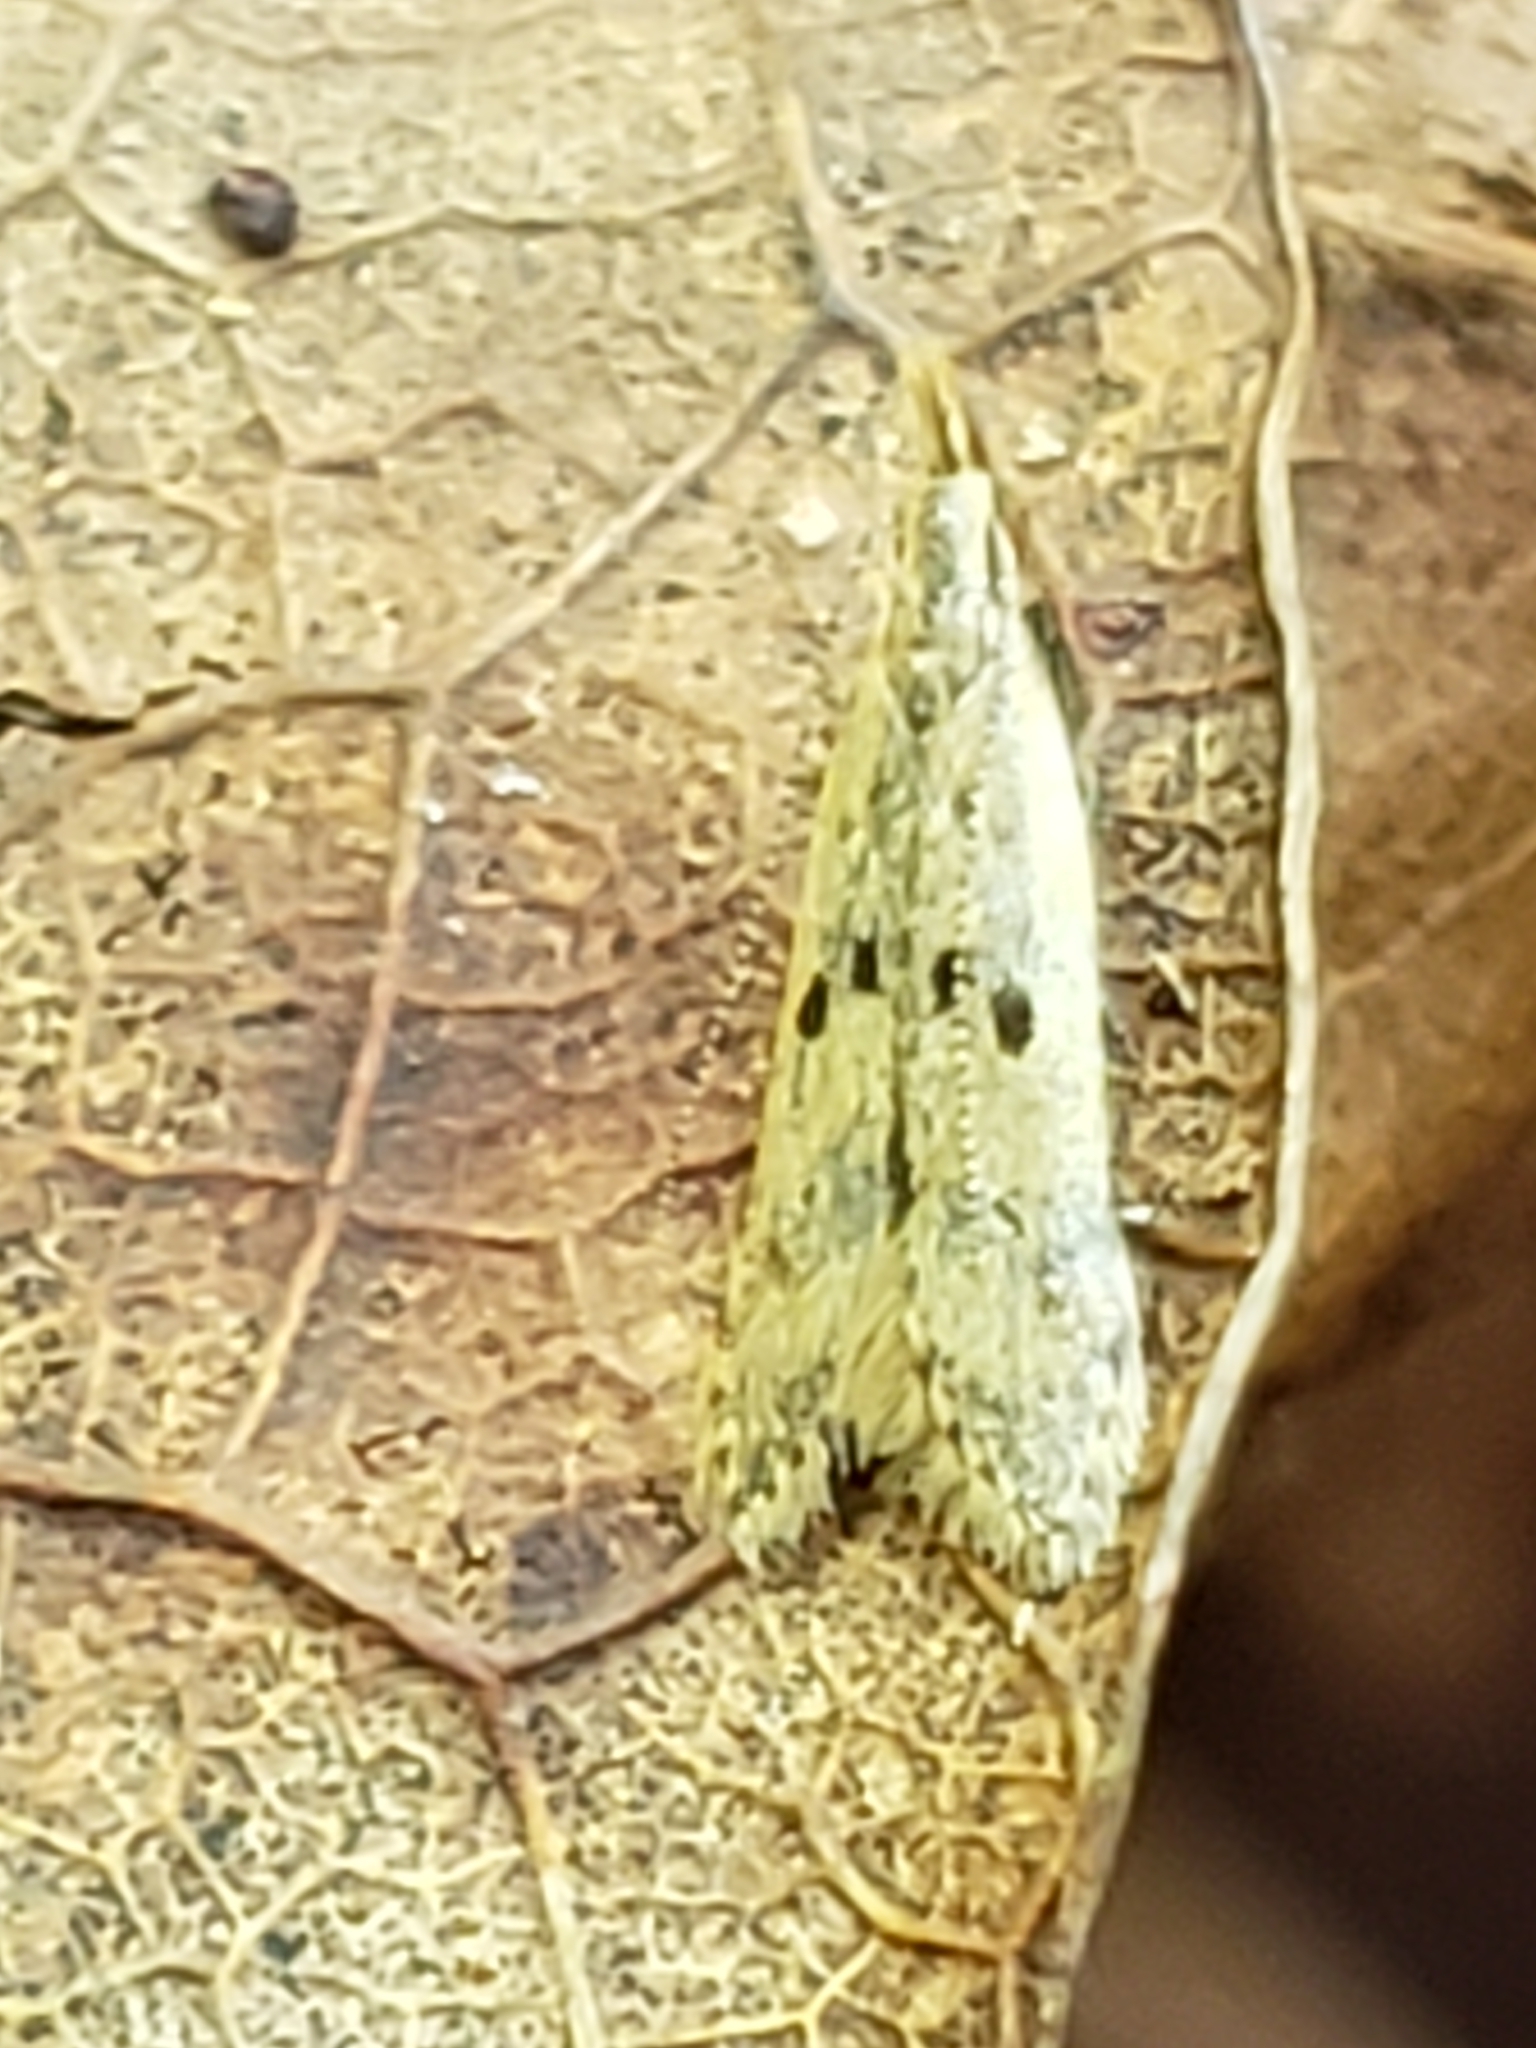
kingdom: Animalia
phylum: Arthropoda
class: Insecta
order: Lepidoptera
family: Gelechiidae
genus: Dichomeris
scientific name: Dichomeris punctipennella
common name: Many-spotted dichomeris moth
